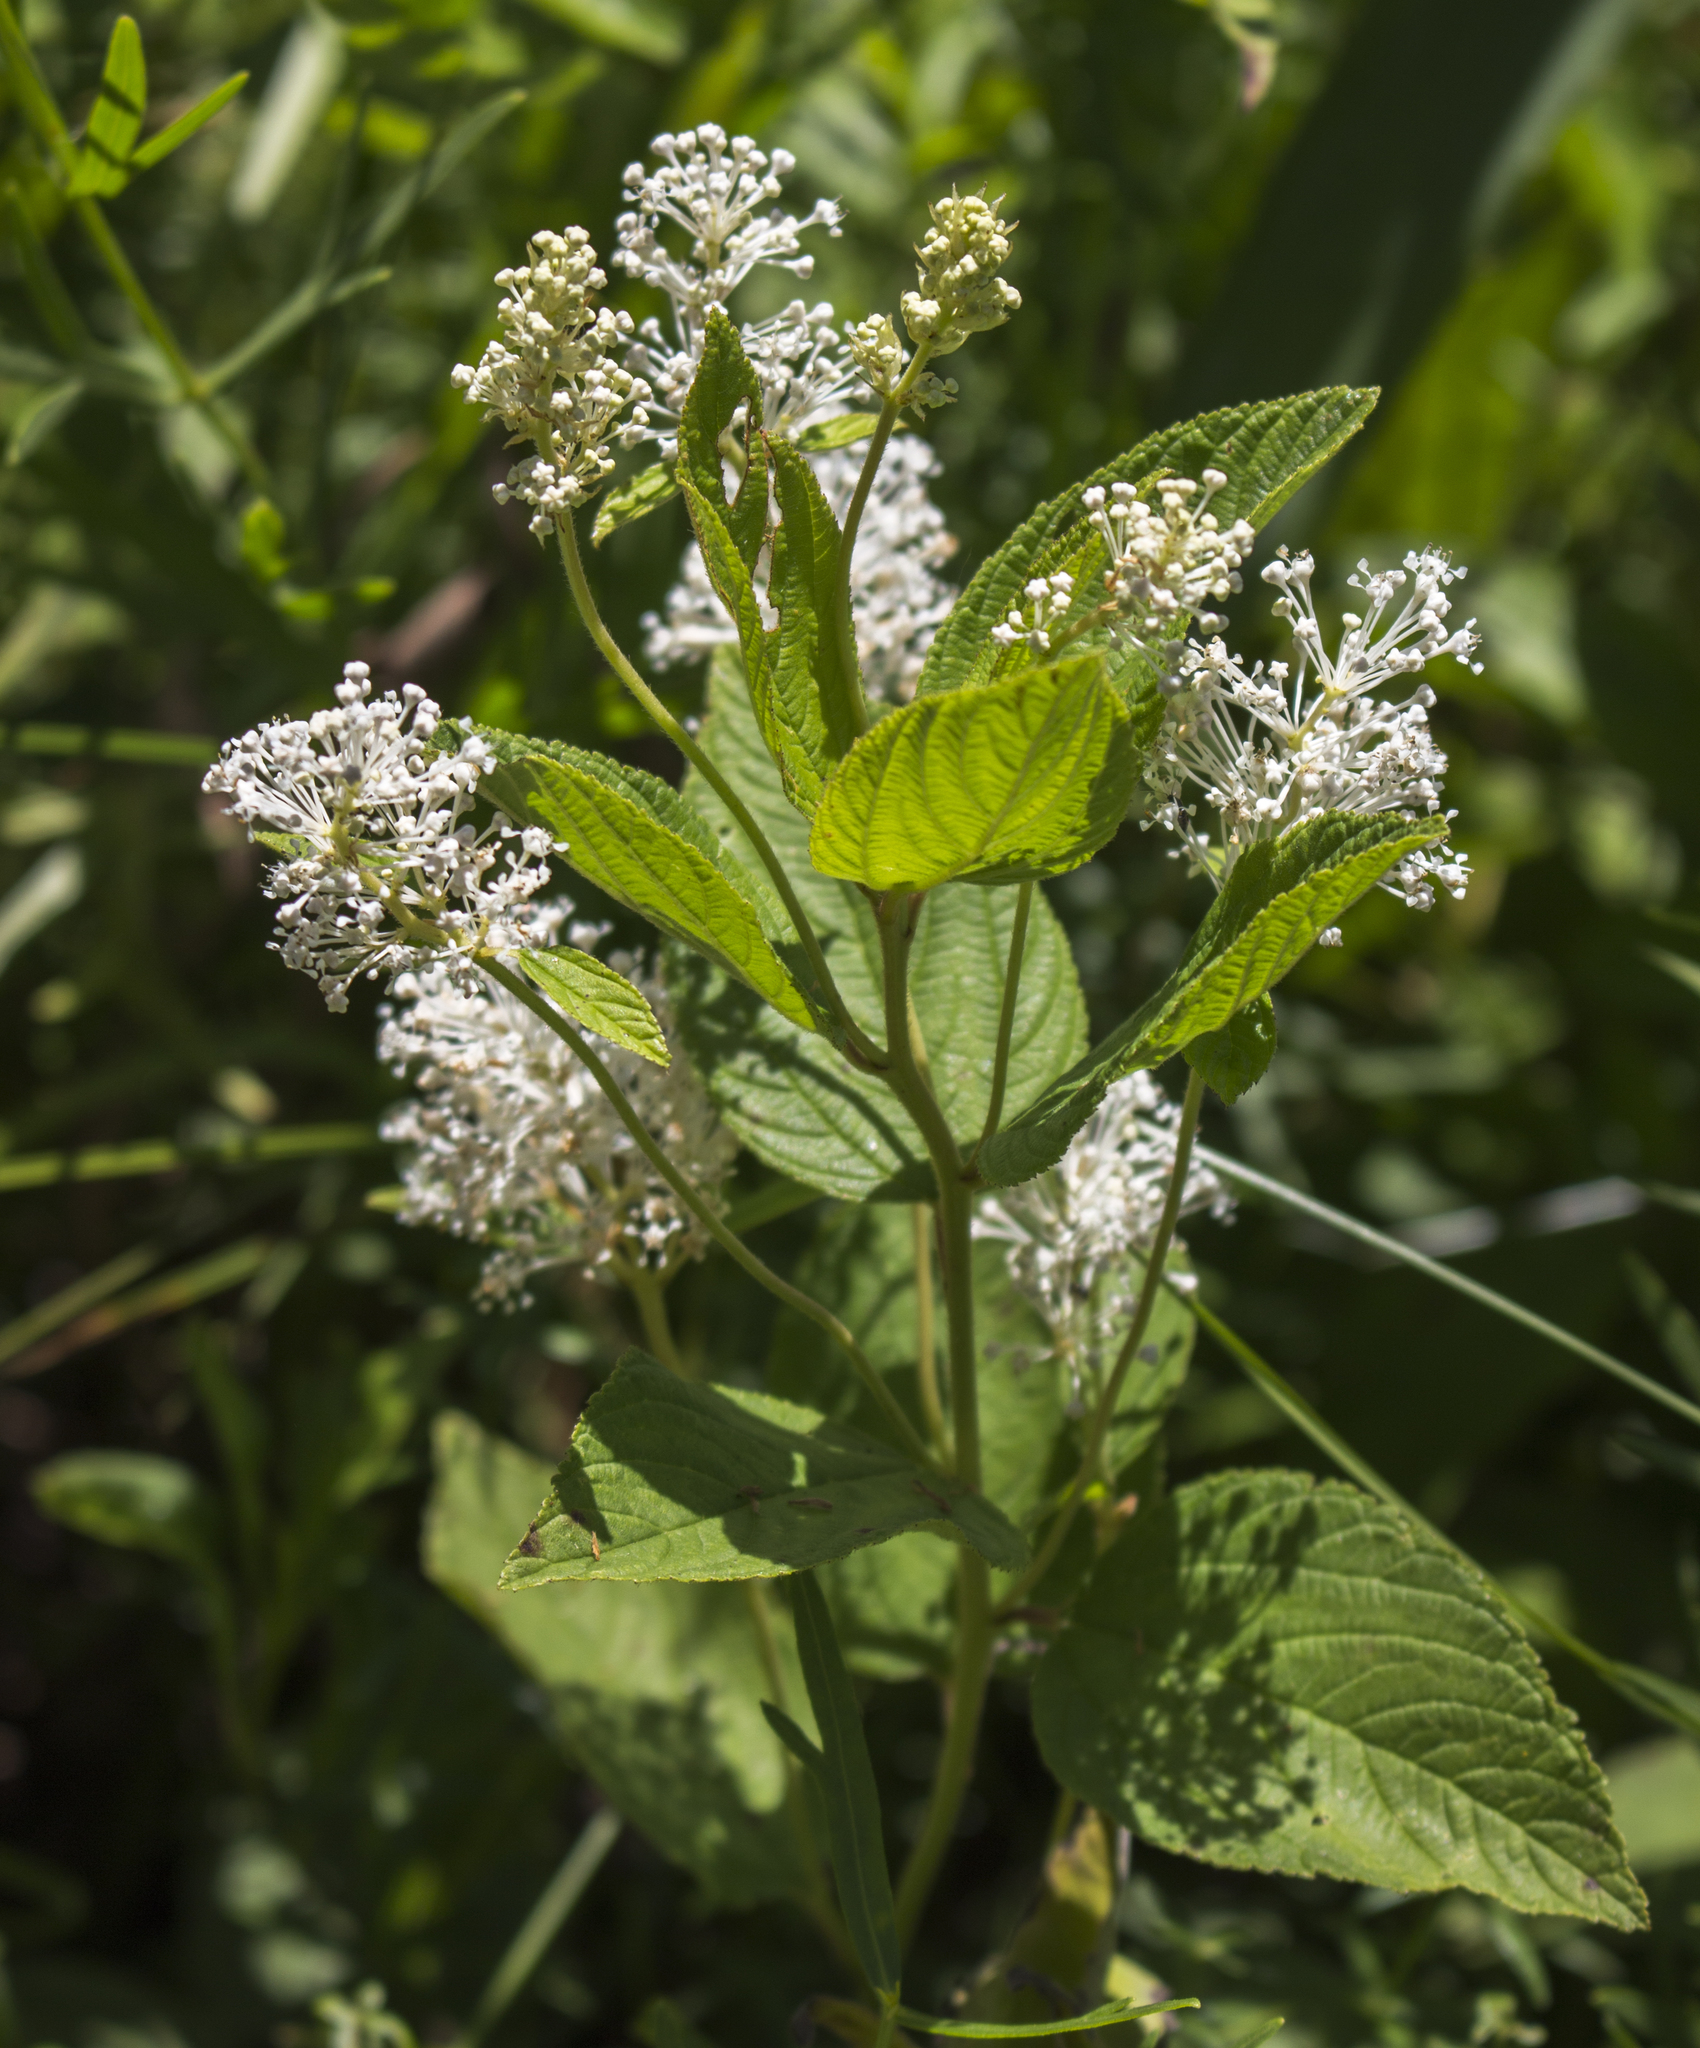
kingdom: Plantae
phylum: Tracheophyta
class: Magnoliopsida
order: Rosales
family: Rhamnaceae
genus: Ceanothus
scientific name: Ceanothus americanus
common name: Redroot
